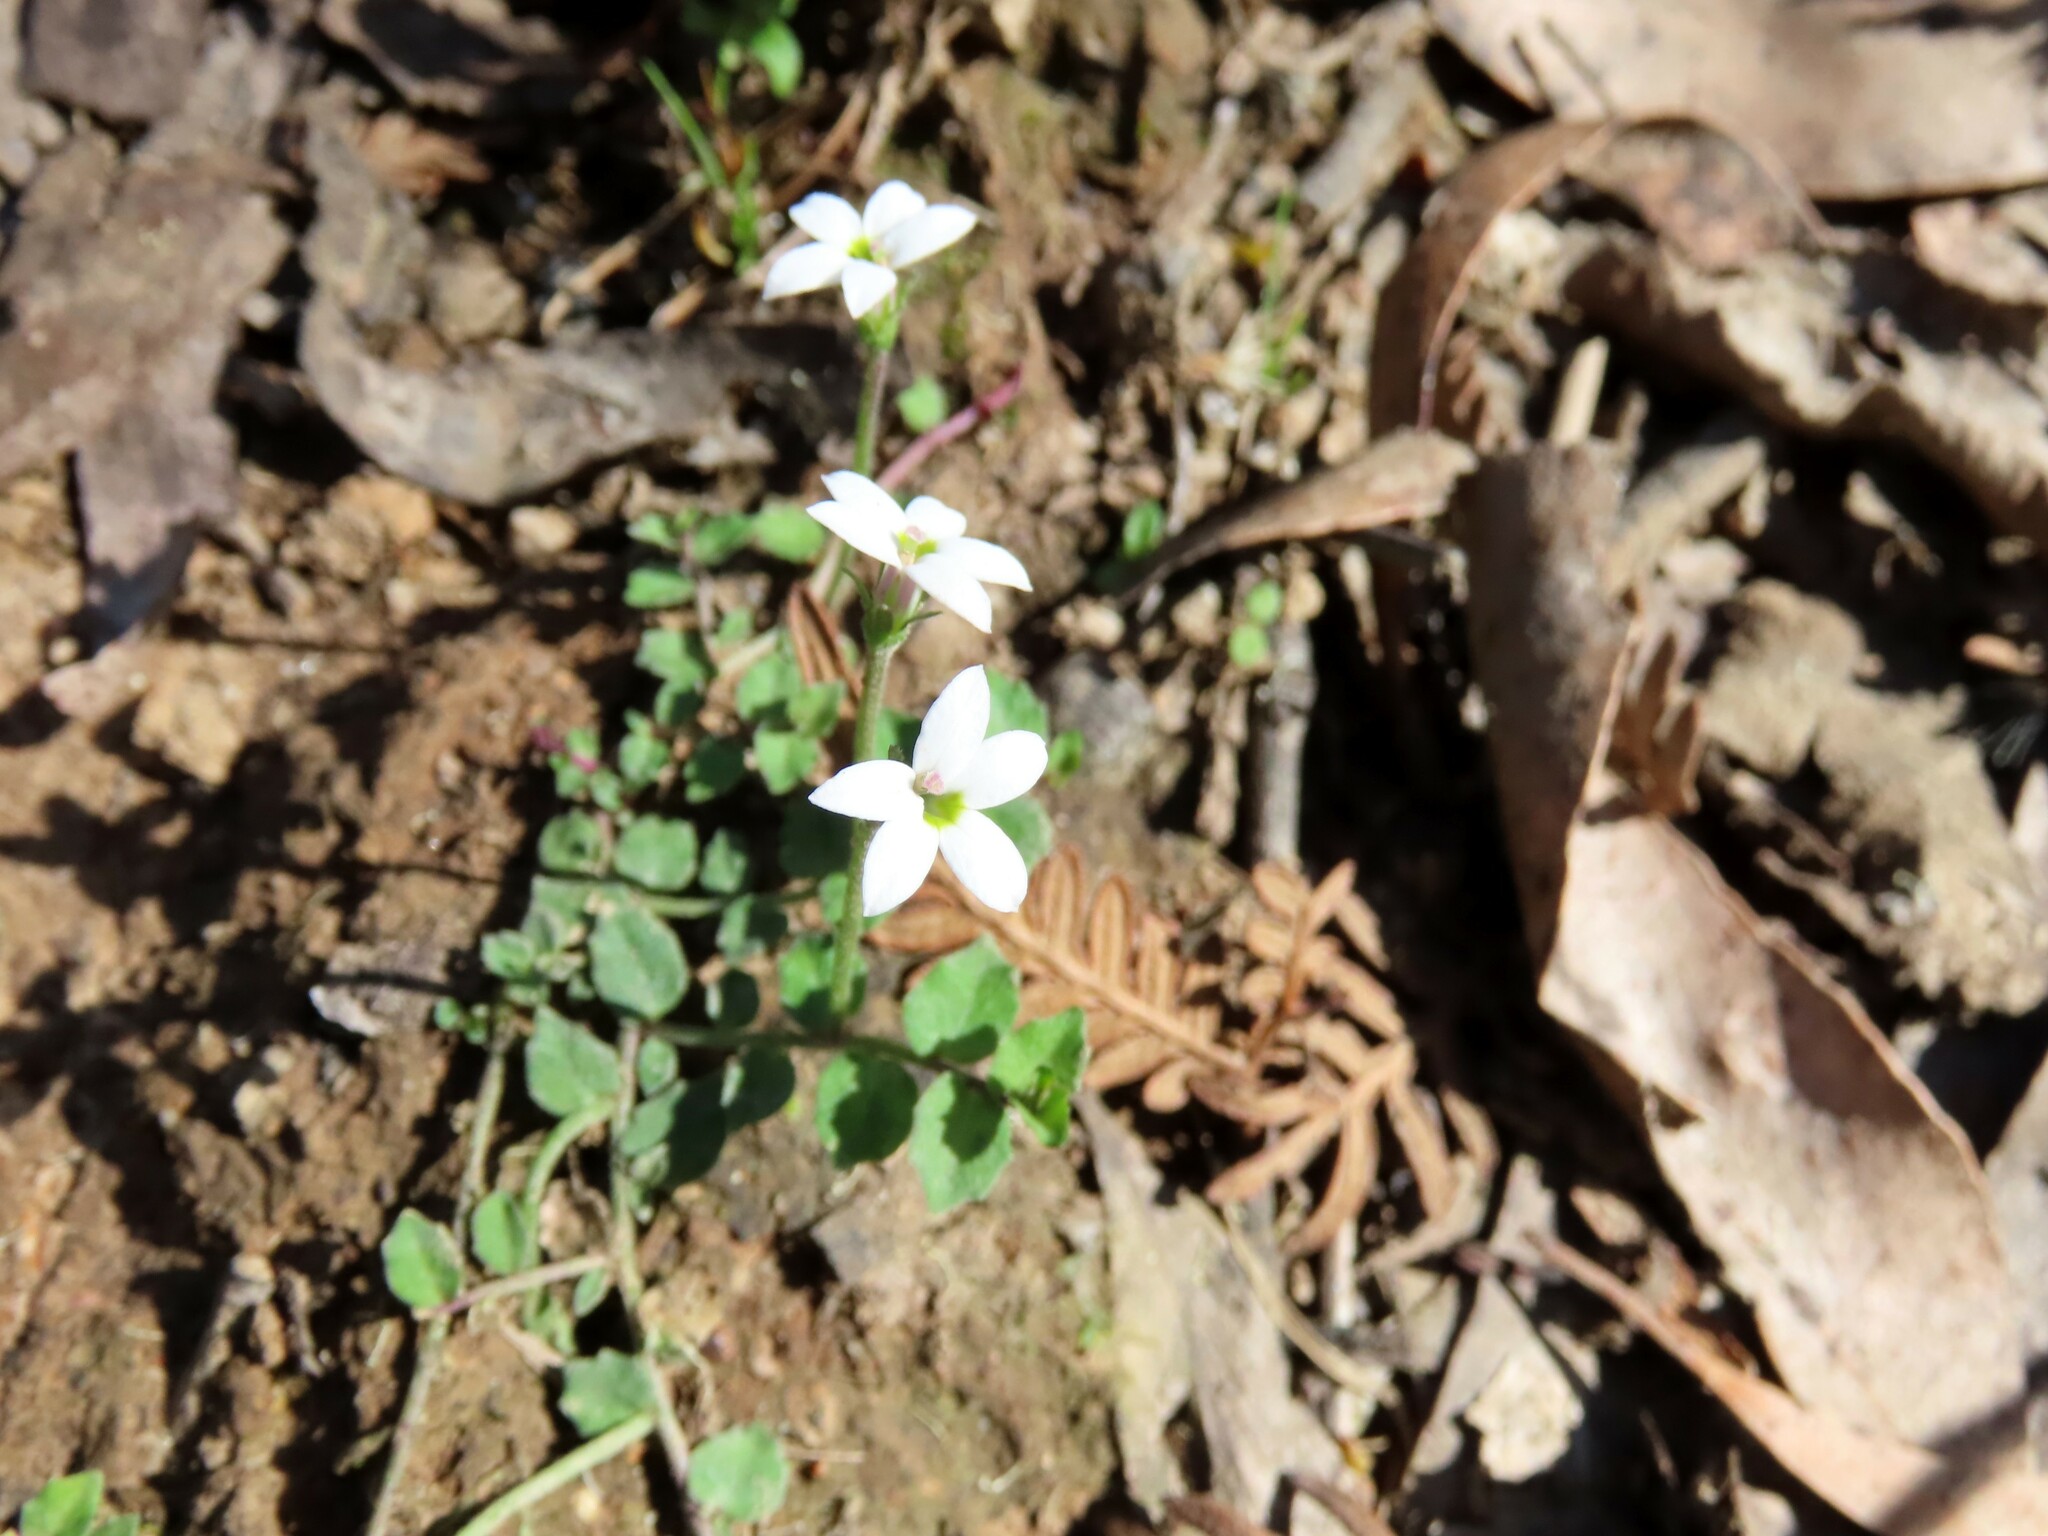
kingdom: Plantae
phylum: Tracheophyta
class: Magnoliopsida
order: Asterales
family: Campanulaceae
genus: Lobelia
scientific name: Lobelia pedunculata
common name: Matted pratia
